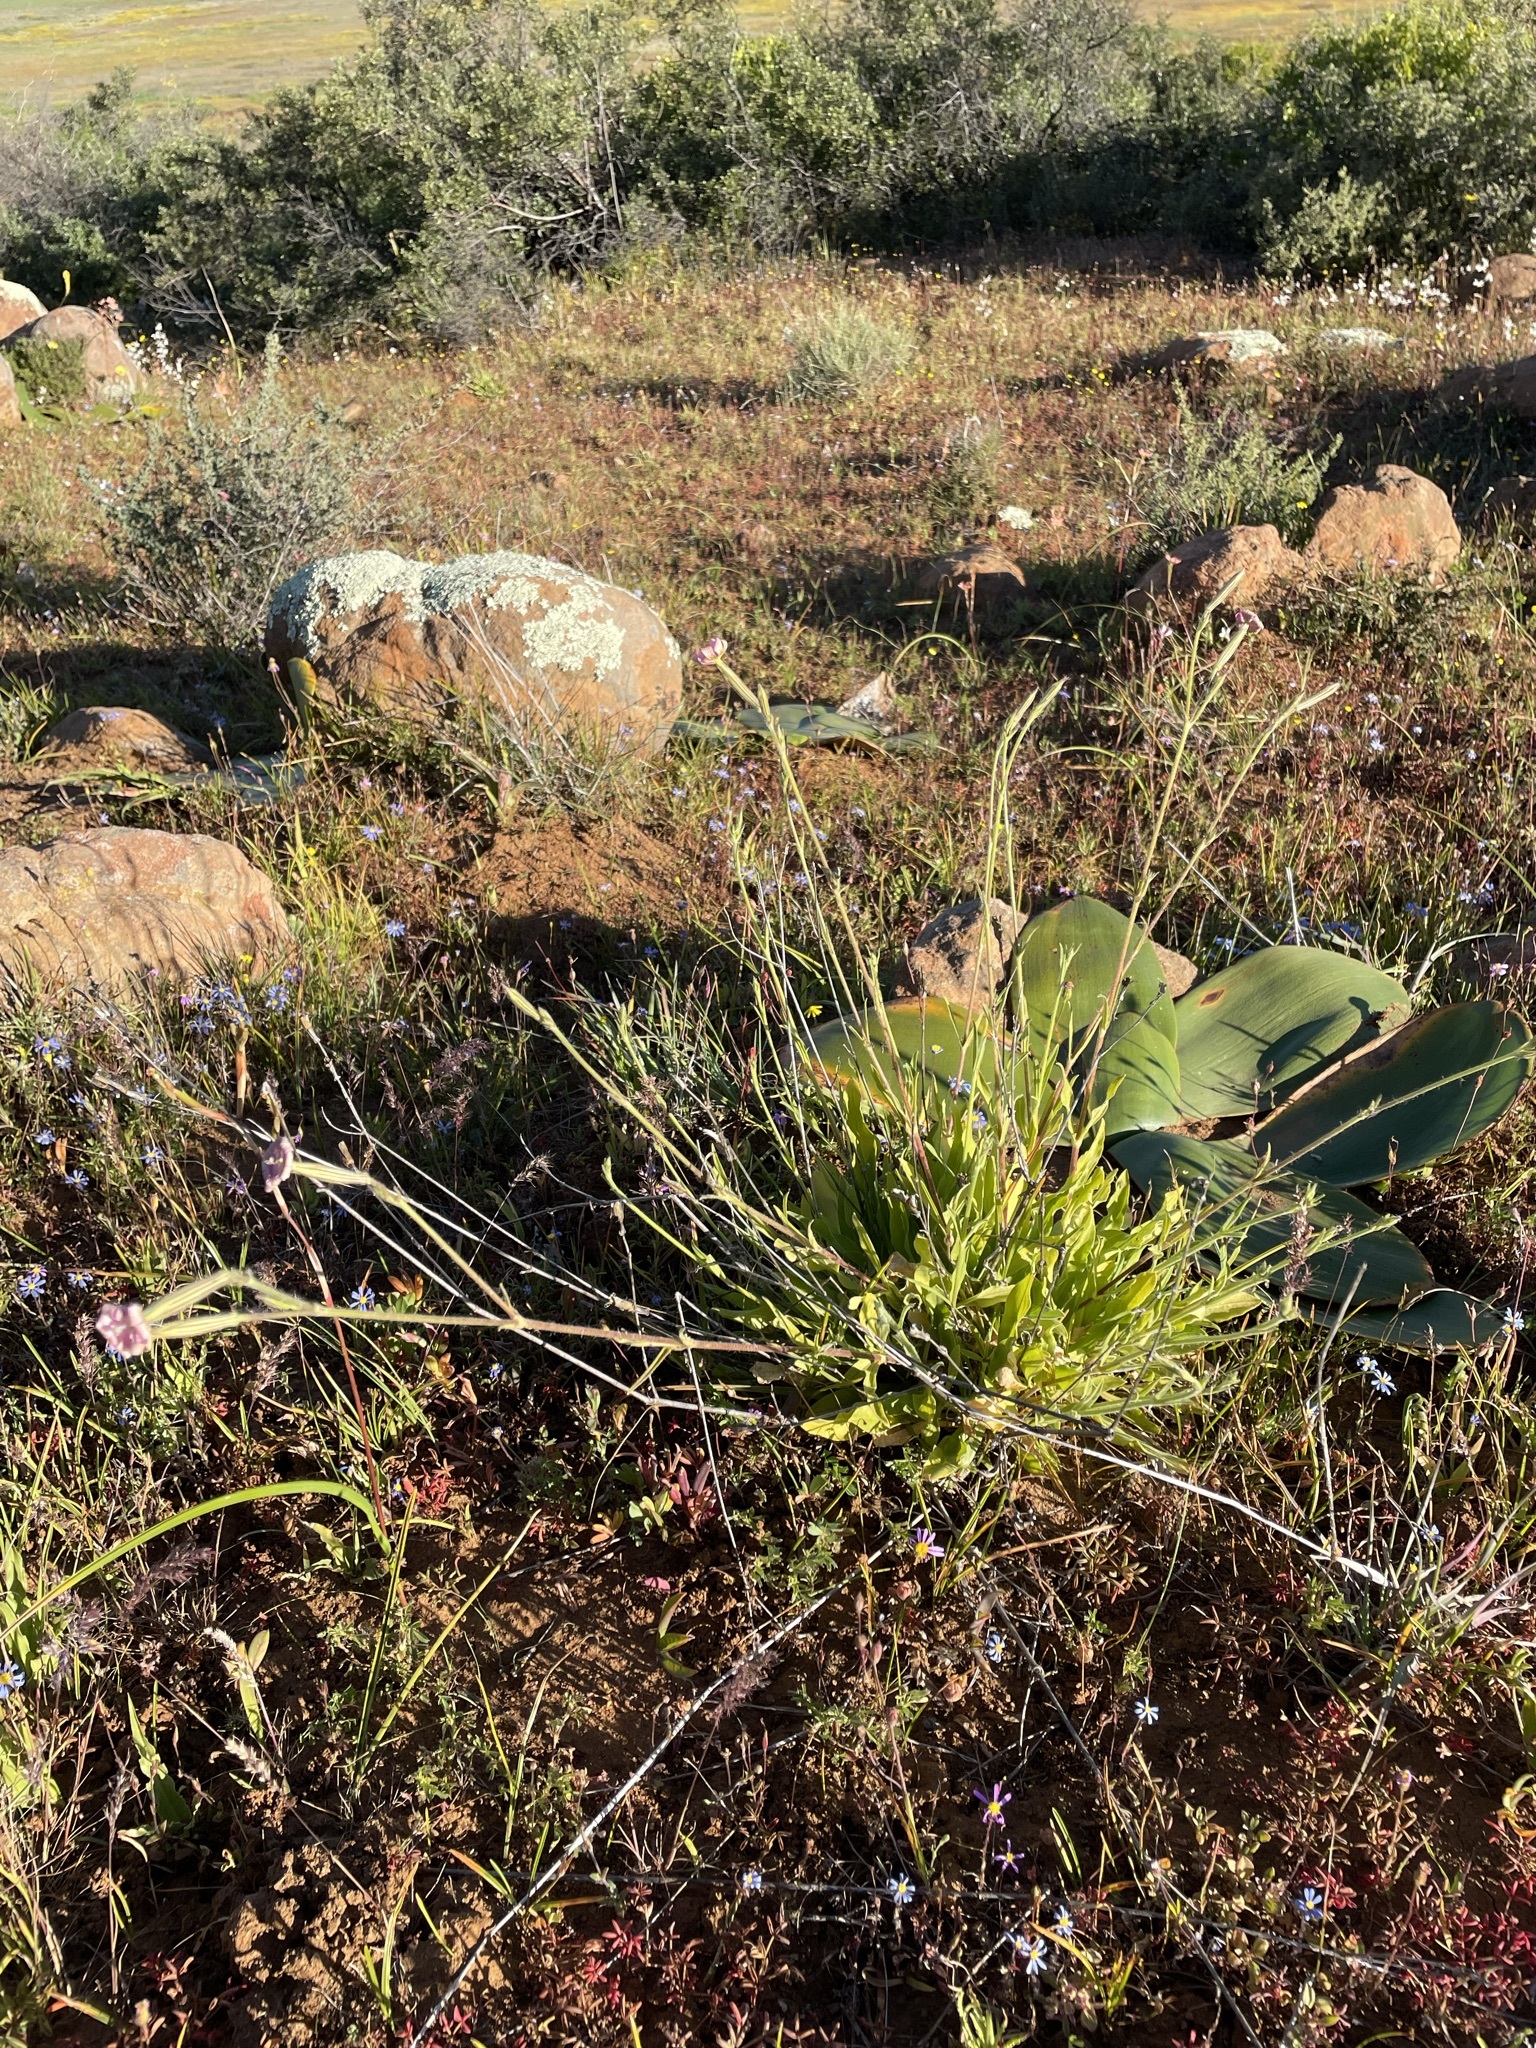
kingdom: Plantae
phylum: Tracheophyta
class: Magnoliopsida
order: Caryophyllales
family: Caryophyllaceae
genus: Silene
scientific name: Silene undulata
